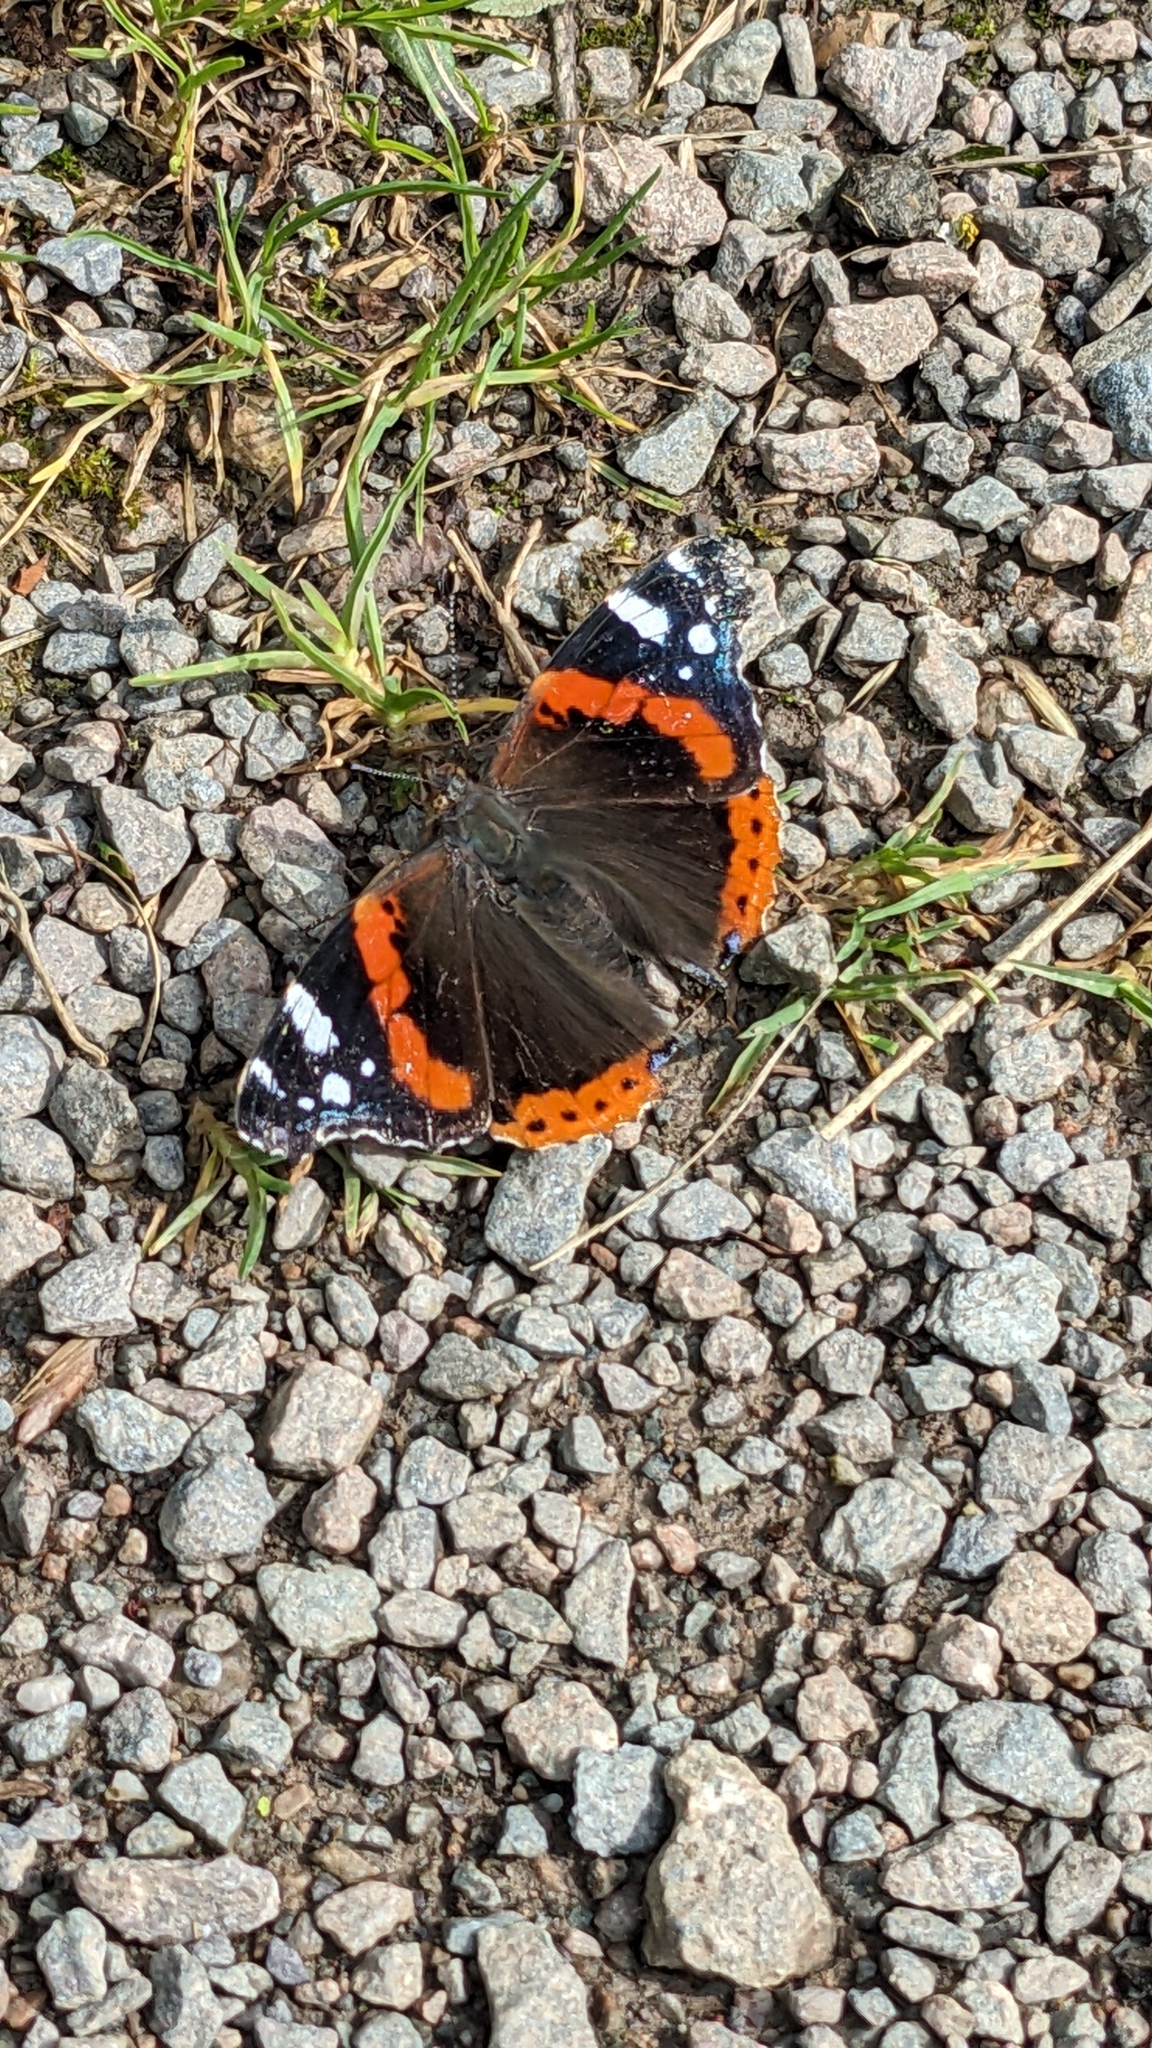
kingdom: Animalia
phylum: Arthropoda
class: Insecta
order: Lepidoptera
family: Nymphalidae
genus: Vanessa
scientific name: Vanessa atalanta
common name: Red admiral
